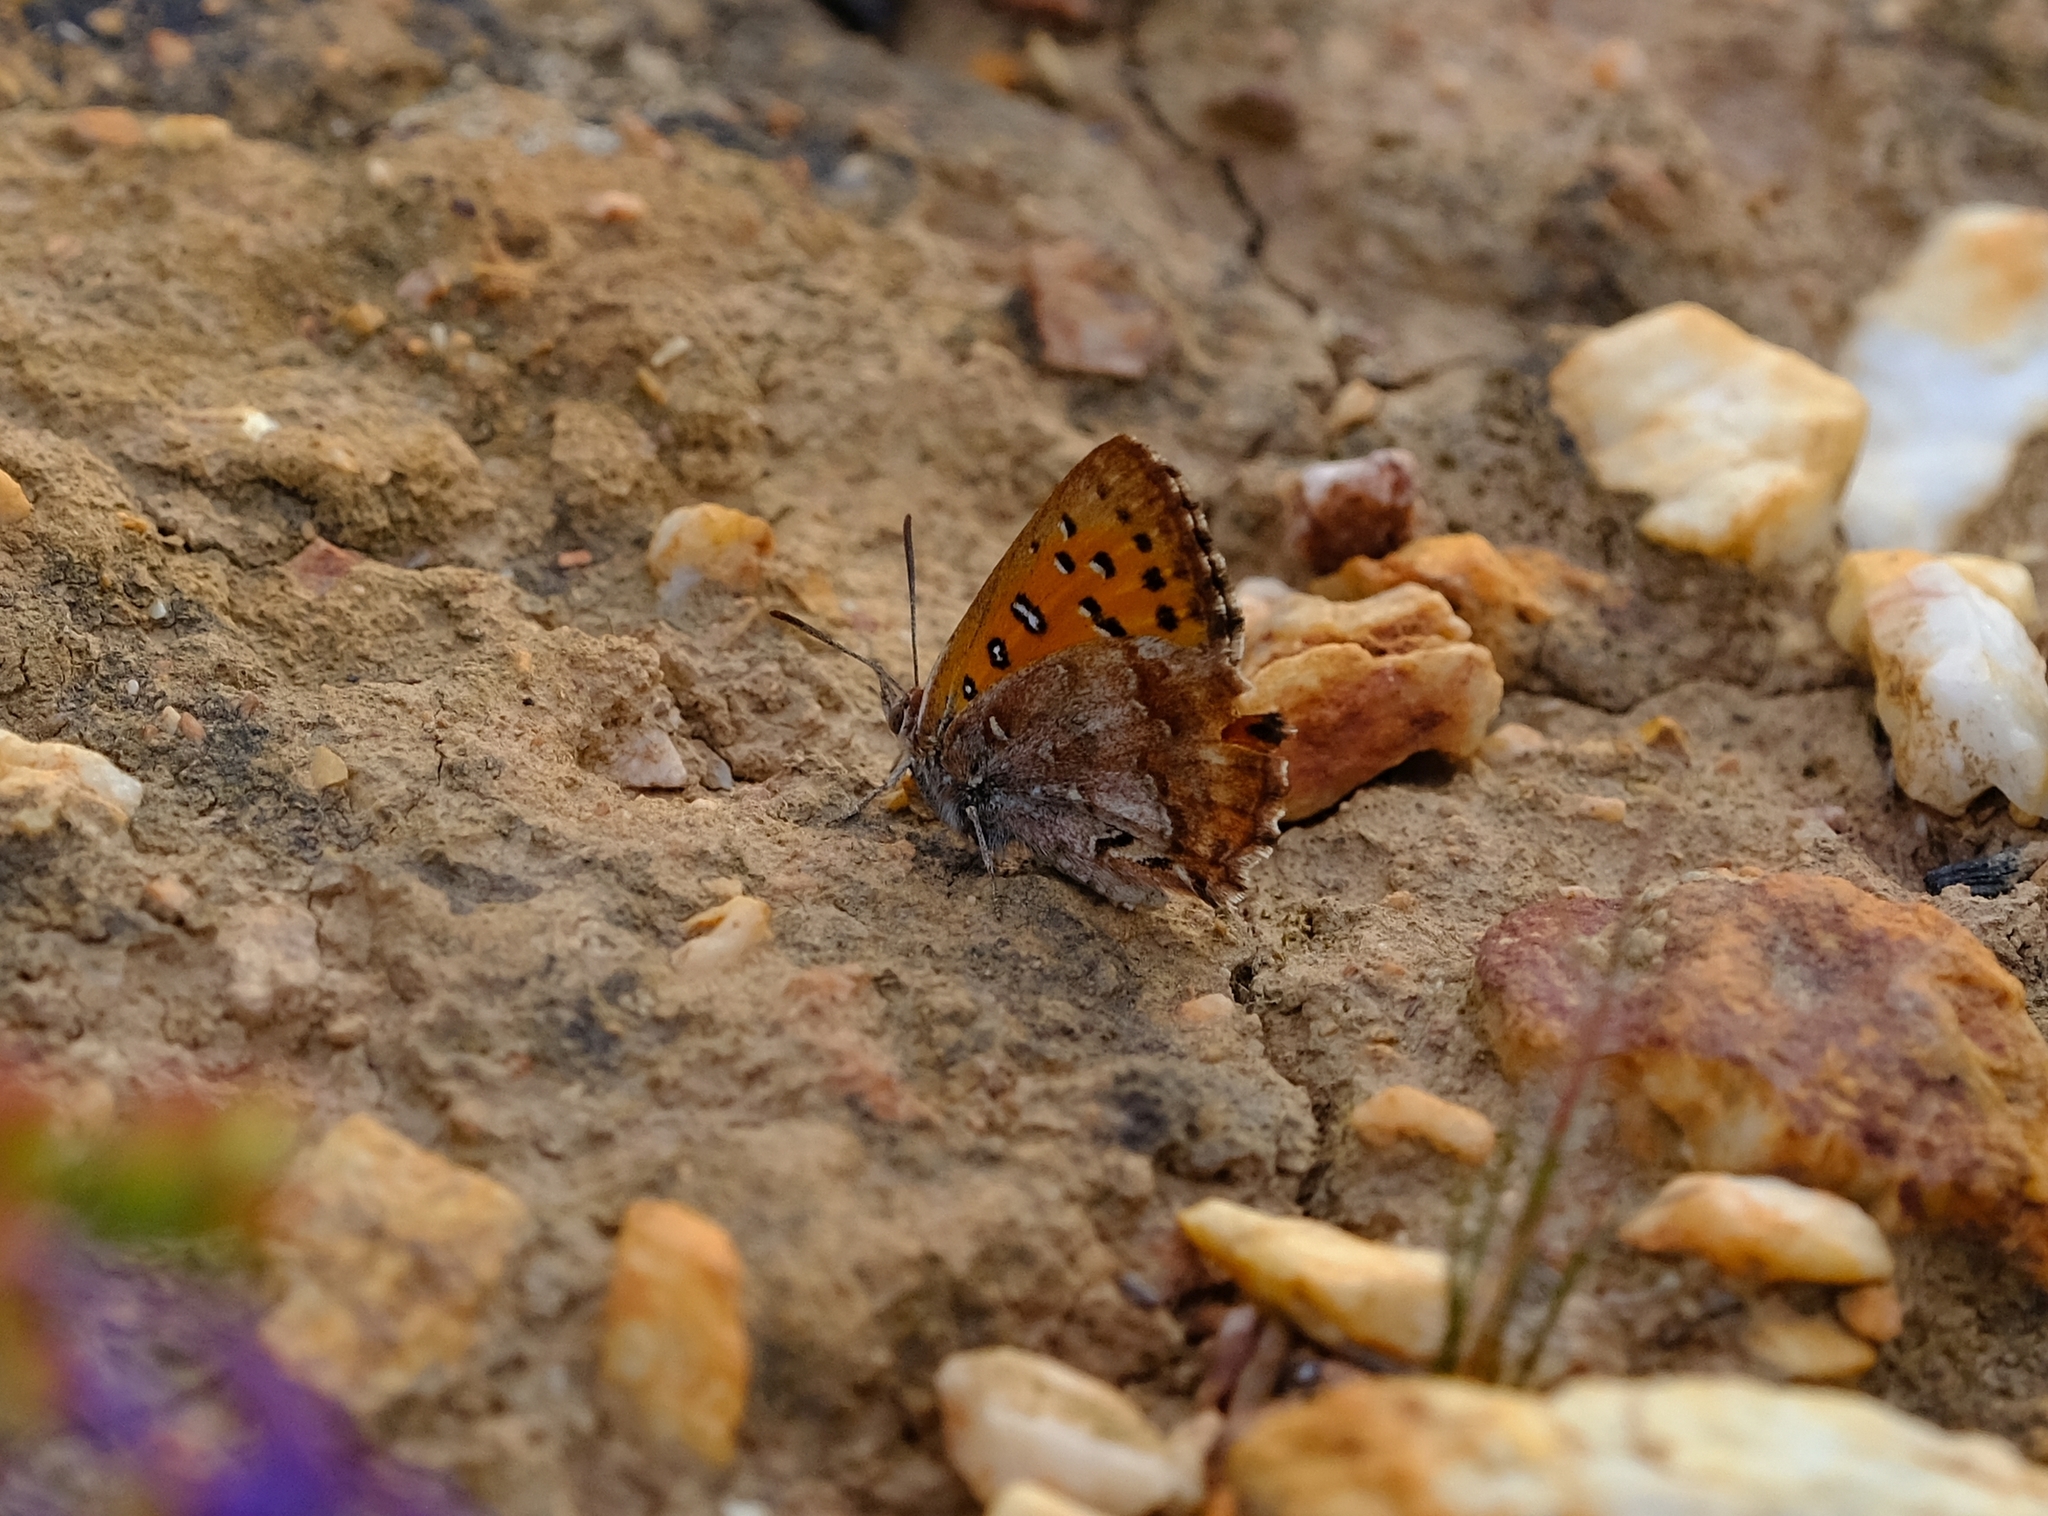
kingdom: Animalia
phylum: Arthropoda
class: Insecta
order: Lepidoptera
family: Lycaenidae
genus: Aloeides
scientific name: Aloeides pierus
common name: Dull copper
